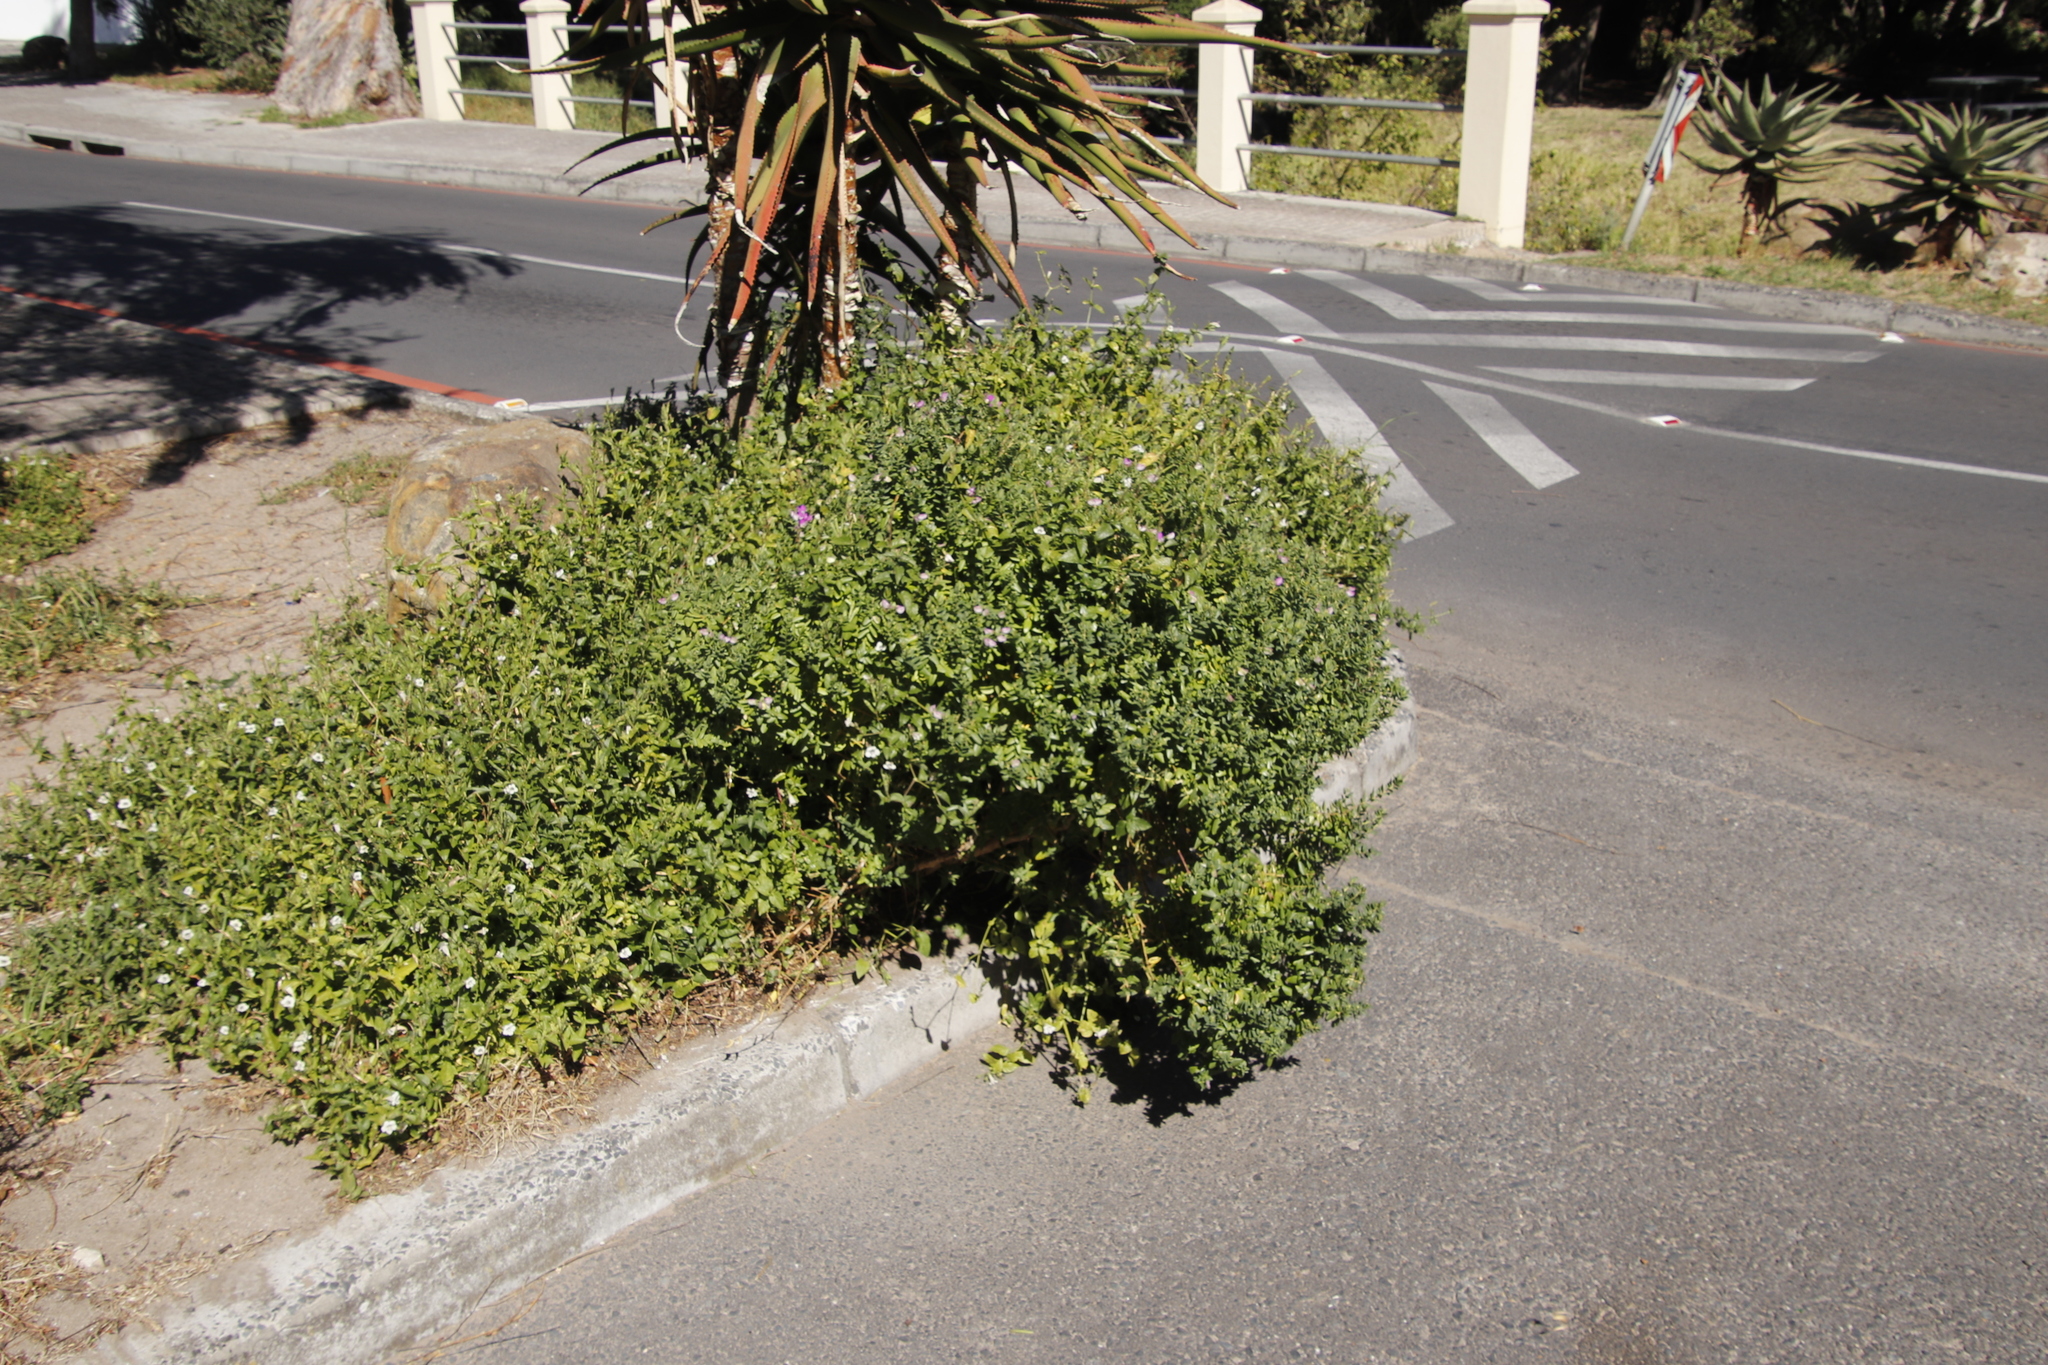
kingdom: Plantae
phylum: Tracheophyta
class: Magnoliopsida
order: Lamiales
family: Acanthaceae
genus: Asystasia
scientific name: Asystasia intrusa
